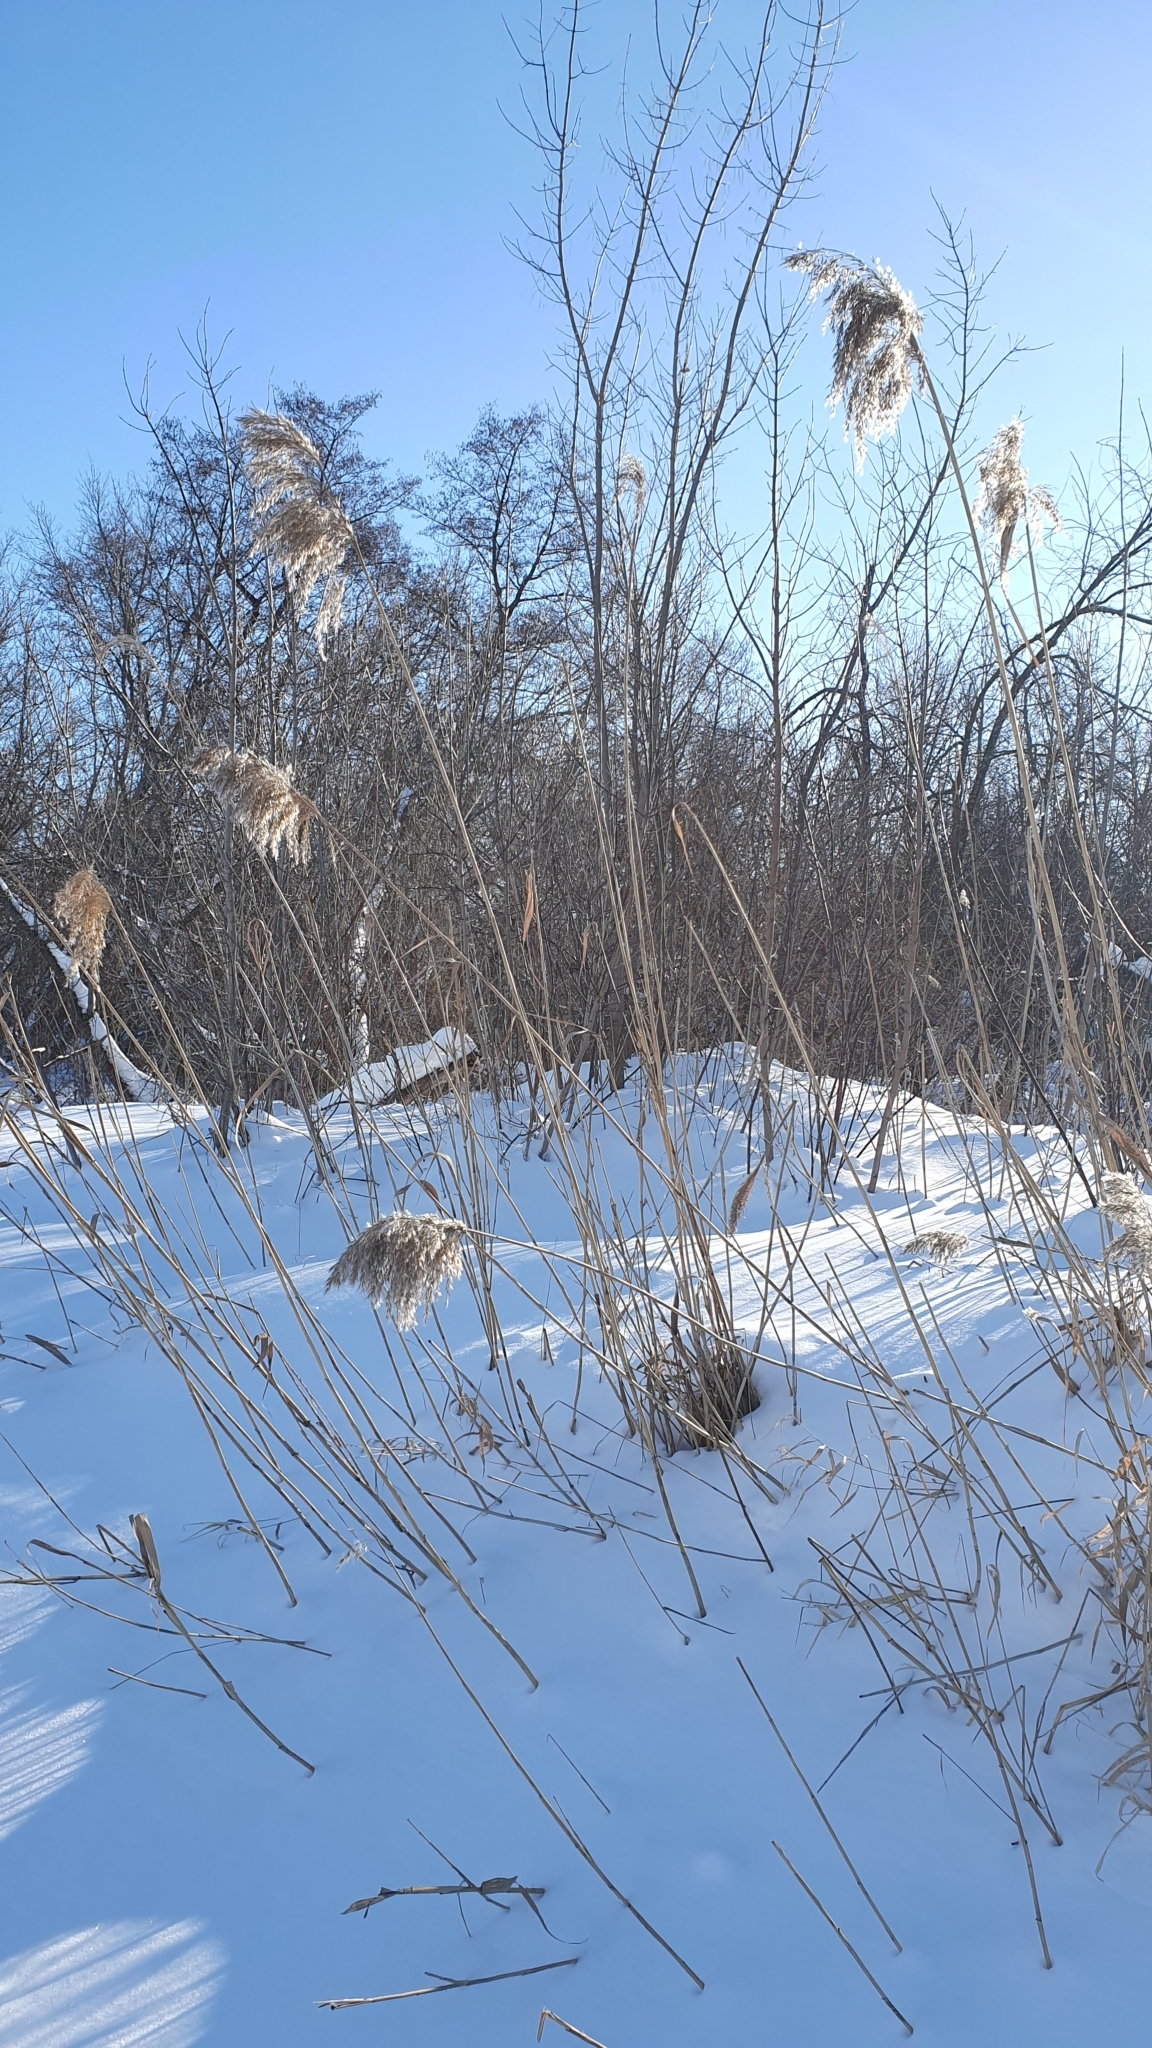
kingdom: Plantae
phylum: Tracheophyta
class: Liliopsida
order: Poales
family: Poaceae
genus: Phragmites
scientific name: Phragmites australis
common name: Common reed
